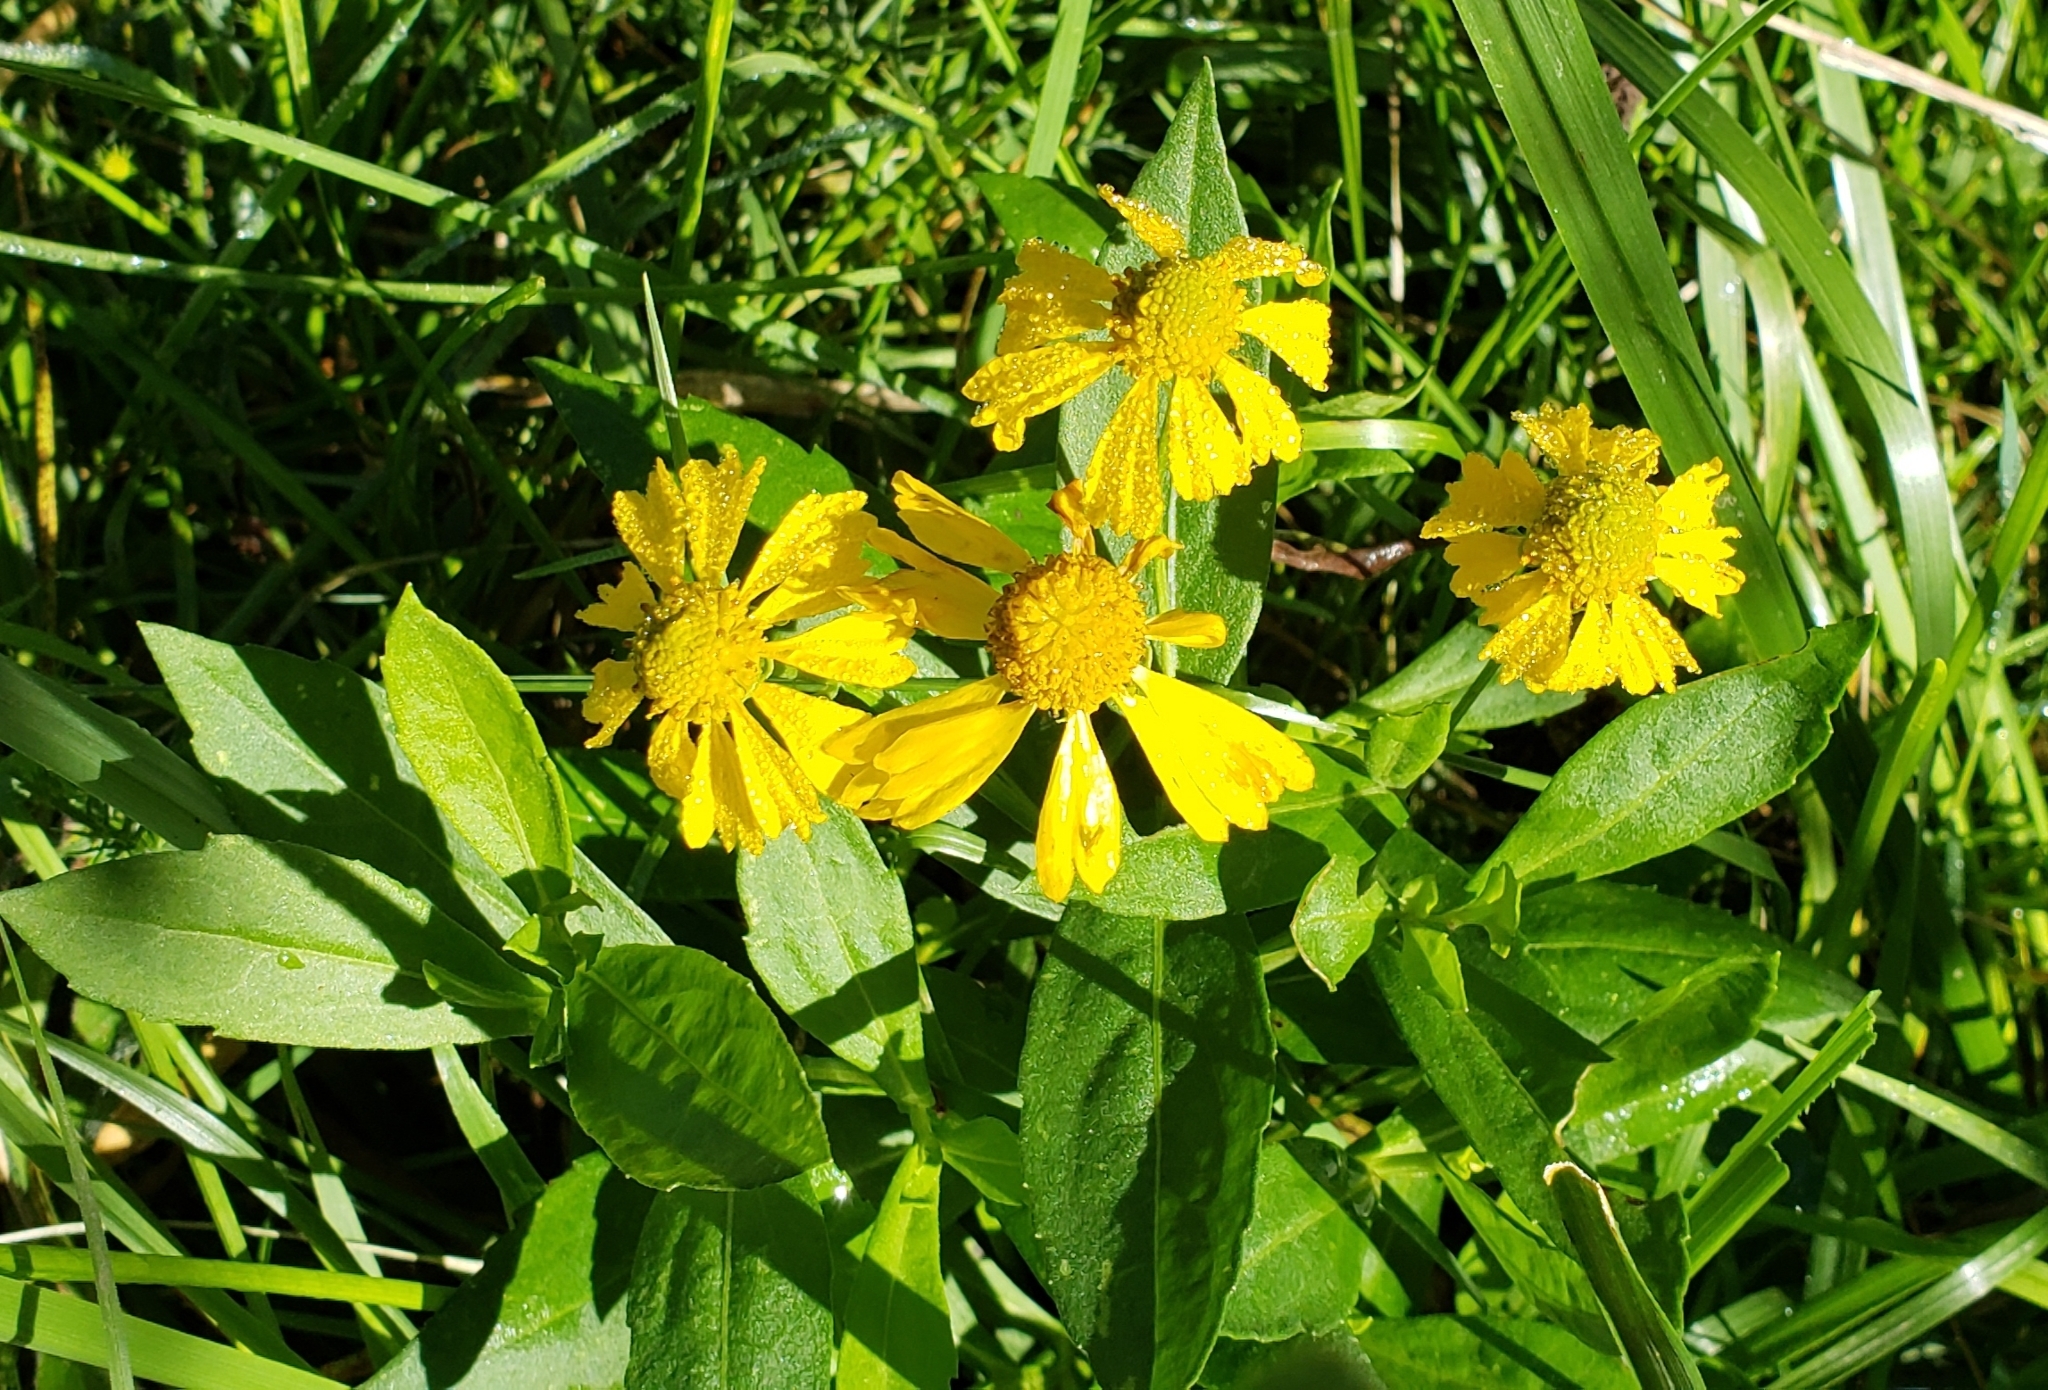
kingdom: Plantae
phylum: Tracheophyta
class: Magnoliopsida
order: Asterales
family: Asteraceae
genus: Helenium
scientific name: Helenium autumnale
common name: Sneezeweed
